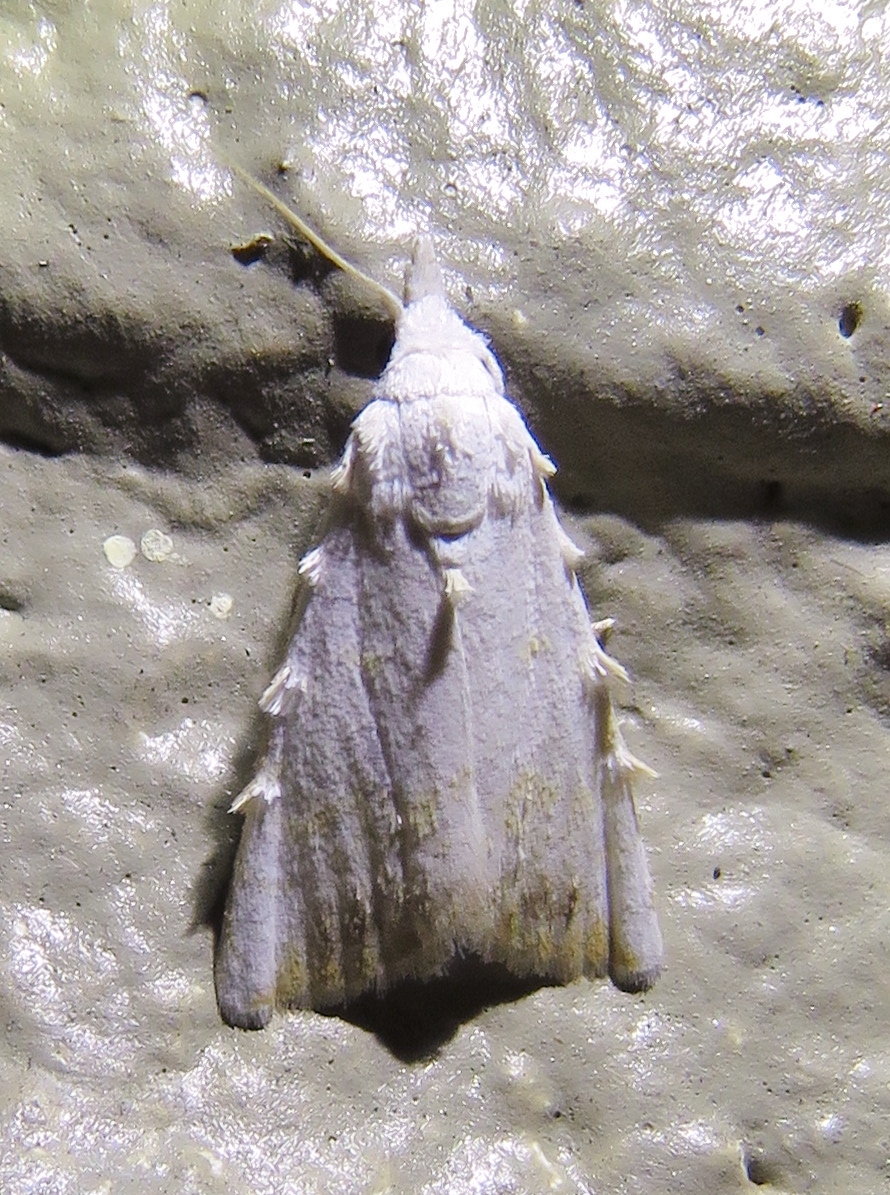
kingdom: Animalia
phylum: Arthropoda
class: Insecta
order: Lepidoptera
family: Nolidae
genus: Nola
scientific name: Nola cereella
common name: Sorghum webworm moth
